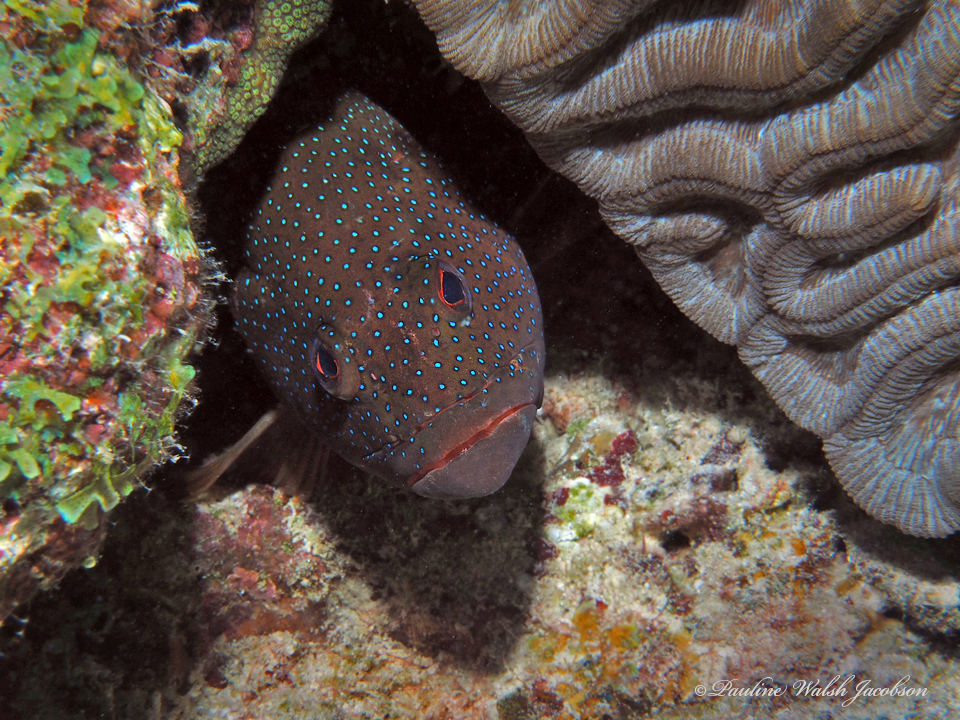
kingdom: Animalia
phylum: Chordata
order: Perciformes
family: Serranidae
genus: Cephalopholis
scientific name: Cephalopholis fulva
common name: Butterfish
